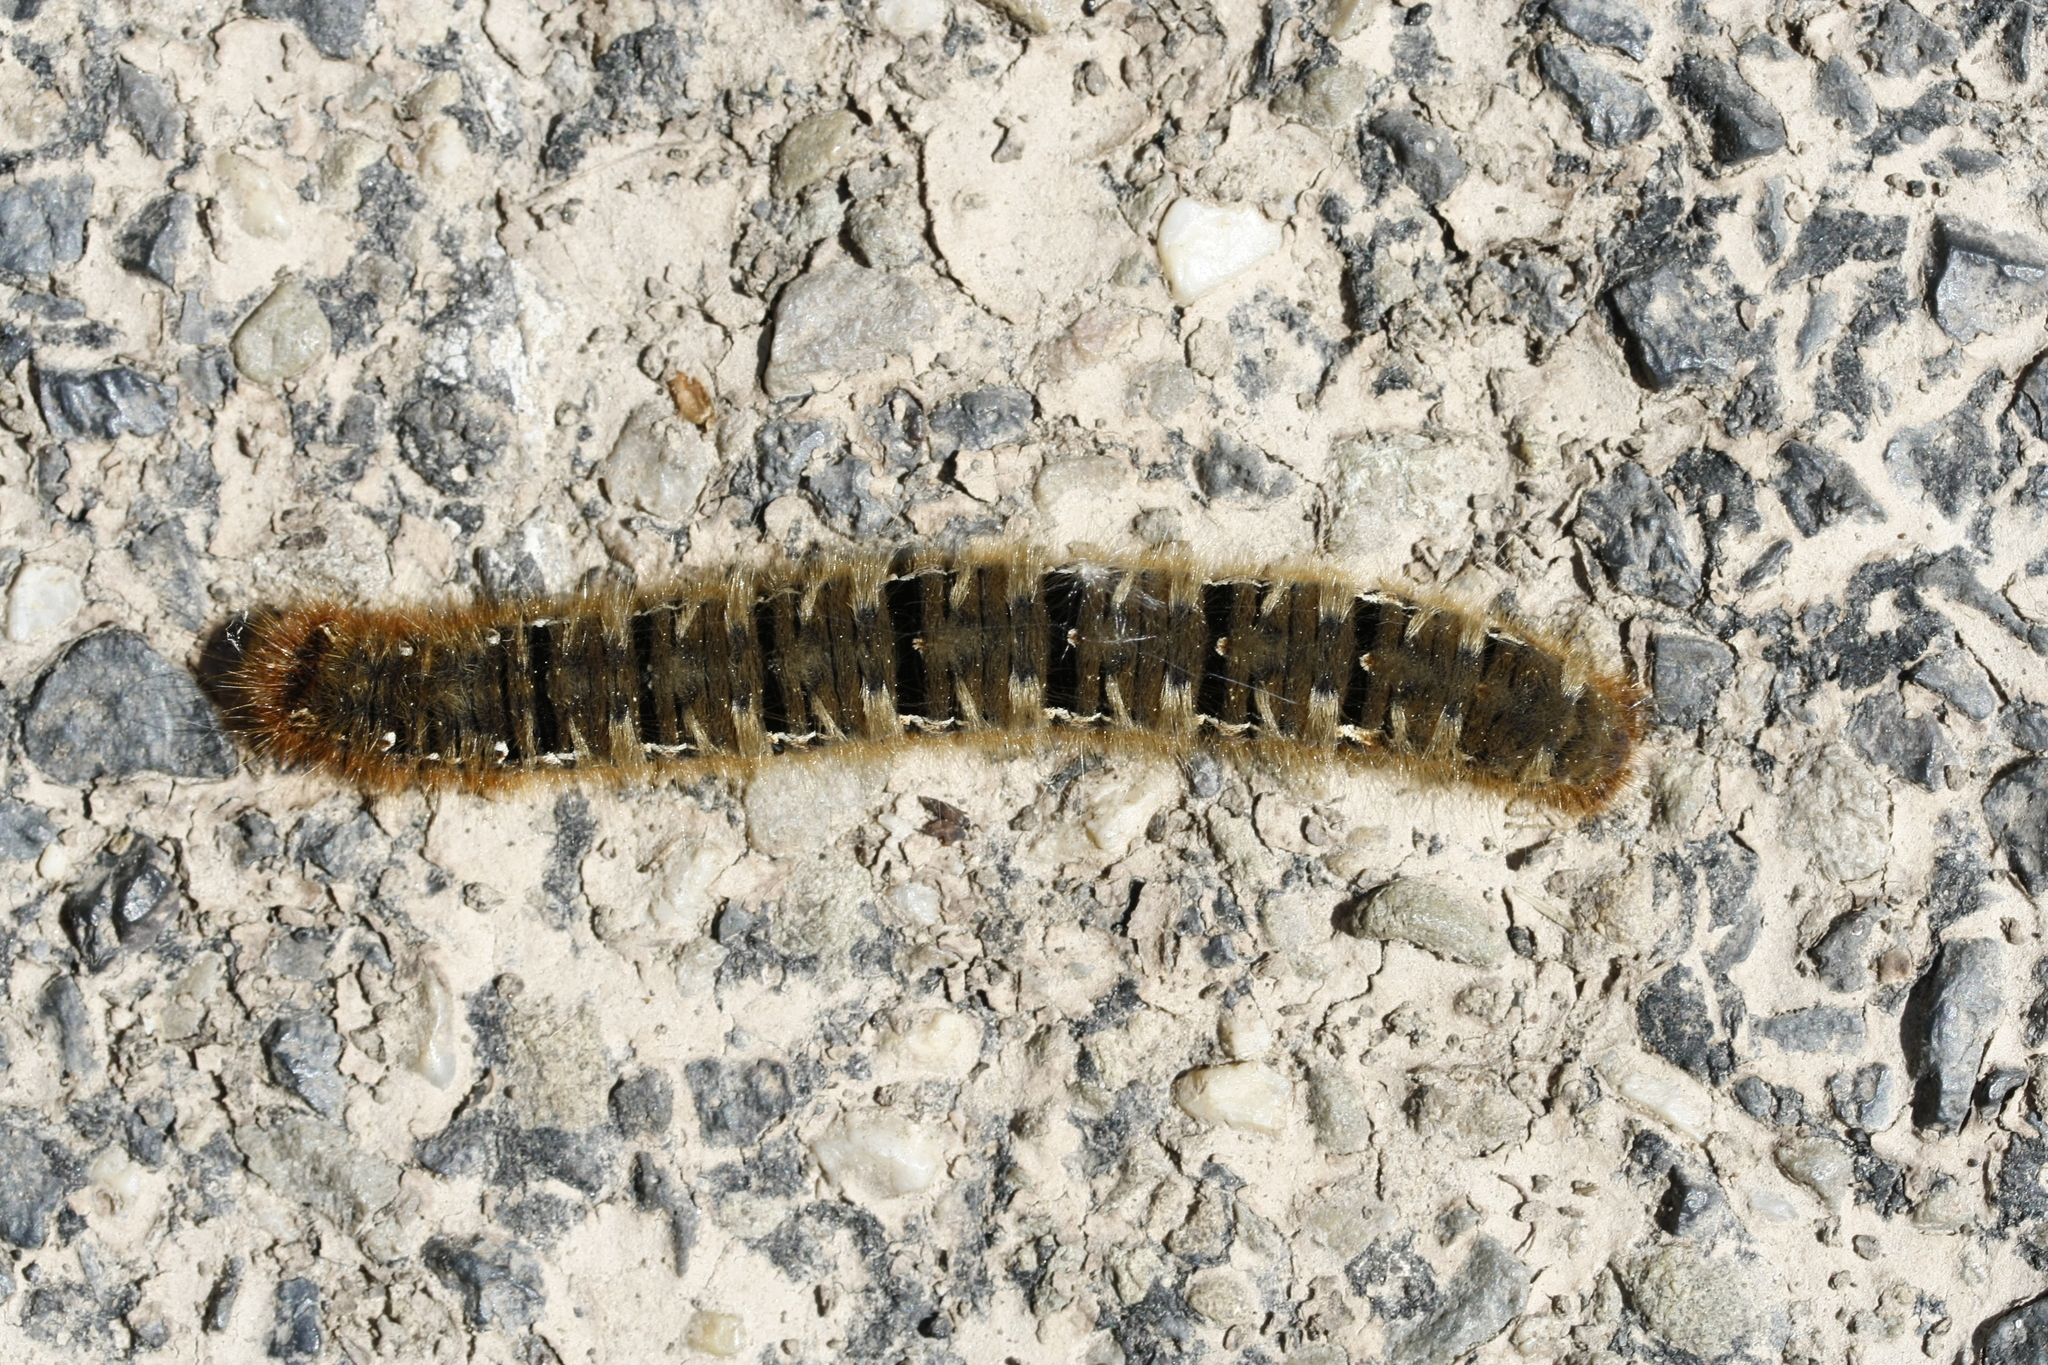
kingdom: Animalia
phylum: Arthropoda
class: Insecta
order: Lepidoptera
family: Lasiocampidae
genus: Lasiocampa
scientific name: Lasiocampa quercus
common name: Oak eggar
